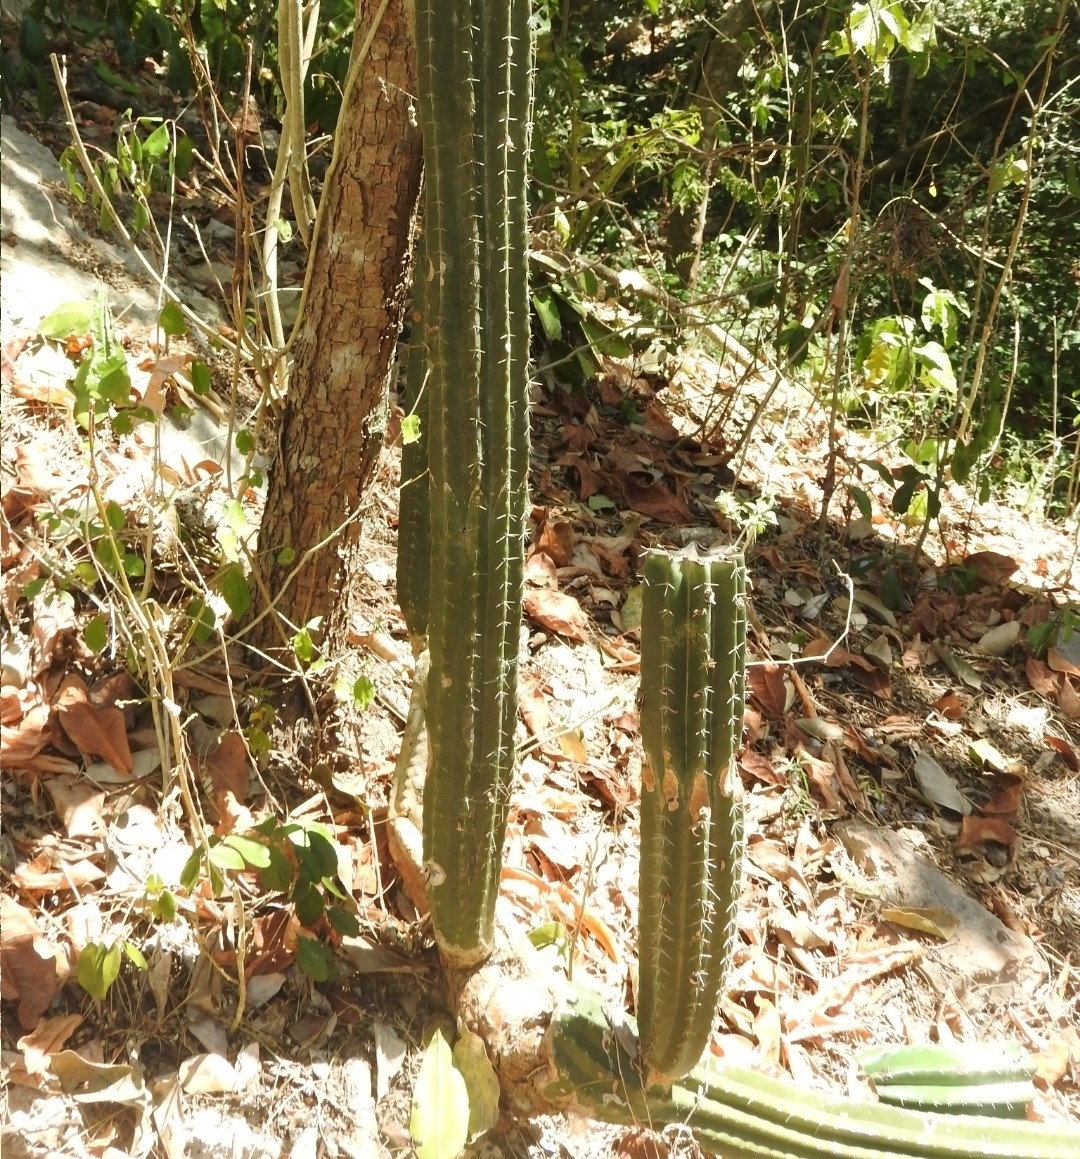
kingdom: Plantae
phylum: Tracheophyta
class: Magnoliopsida
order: Caryophyllales
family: Cactaceae
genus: Pilosocereus
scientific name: Pilosocereus purpusii
